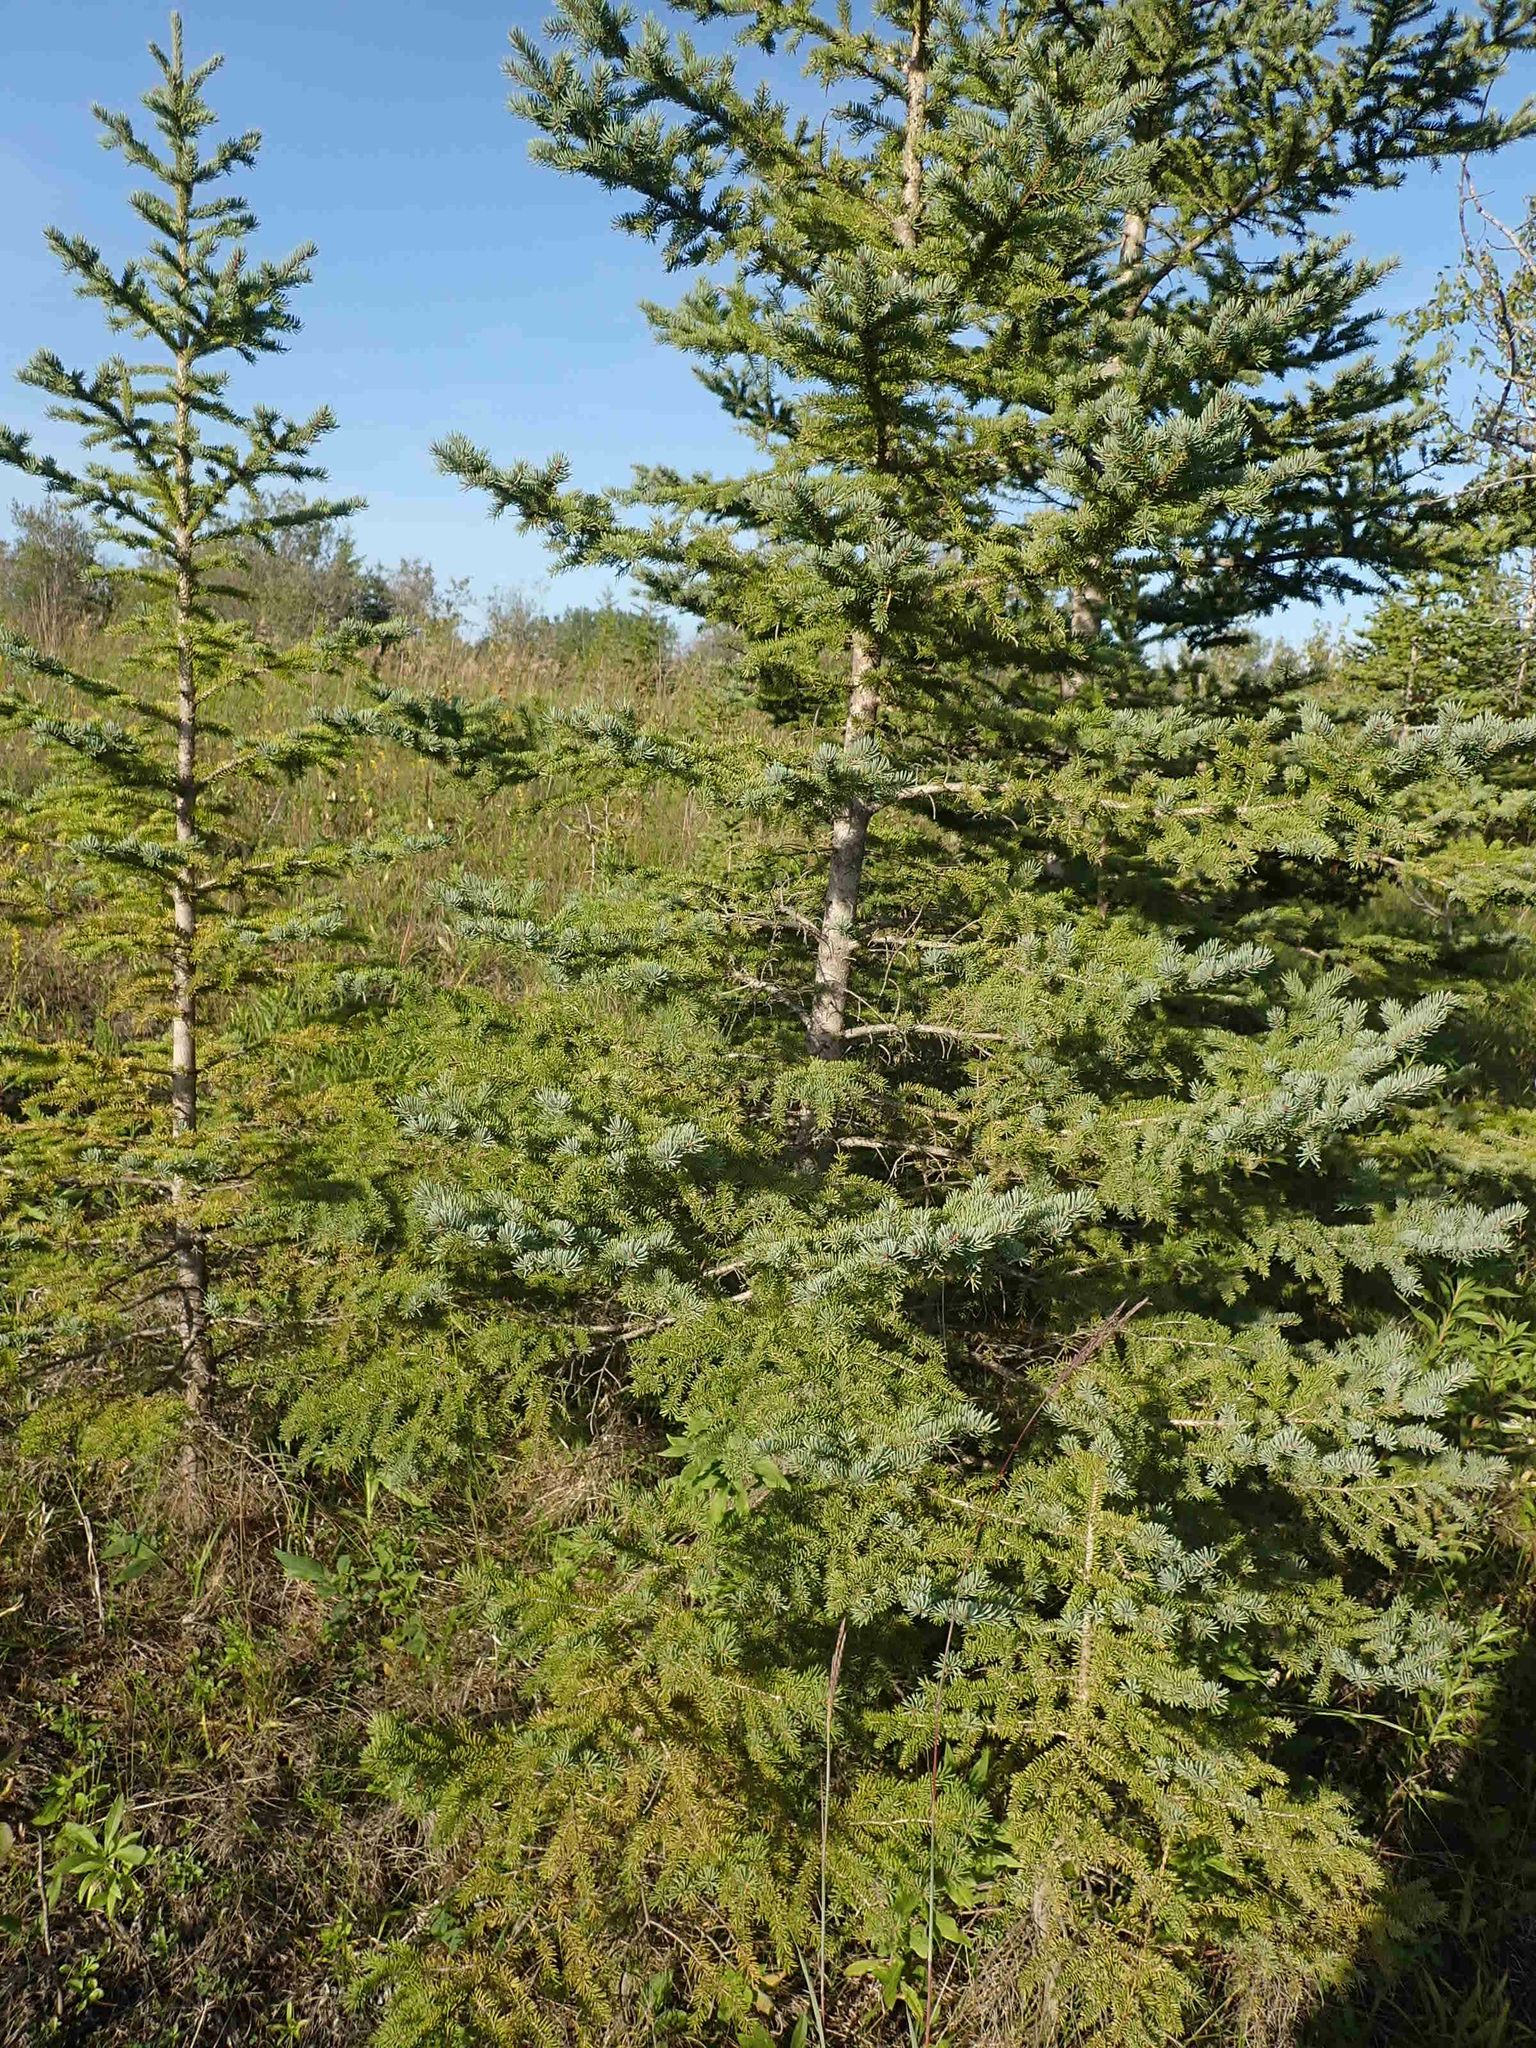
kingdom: Plantae
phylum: Tracheophyta
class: Pinopsida
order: Pinales
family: Pinaceae
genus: Picea
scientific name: Picea glauca
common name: White spruce
